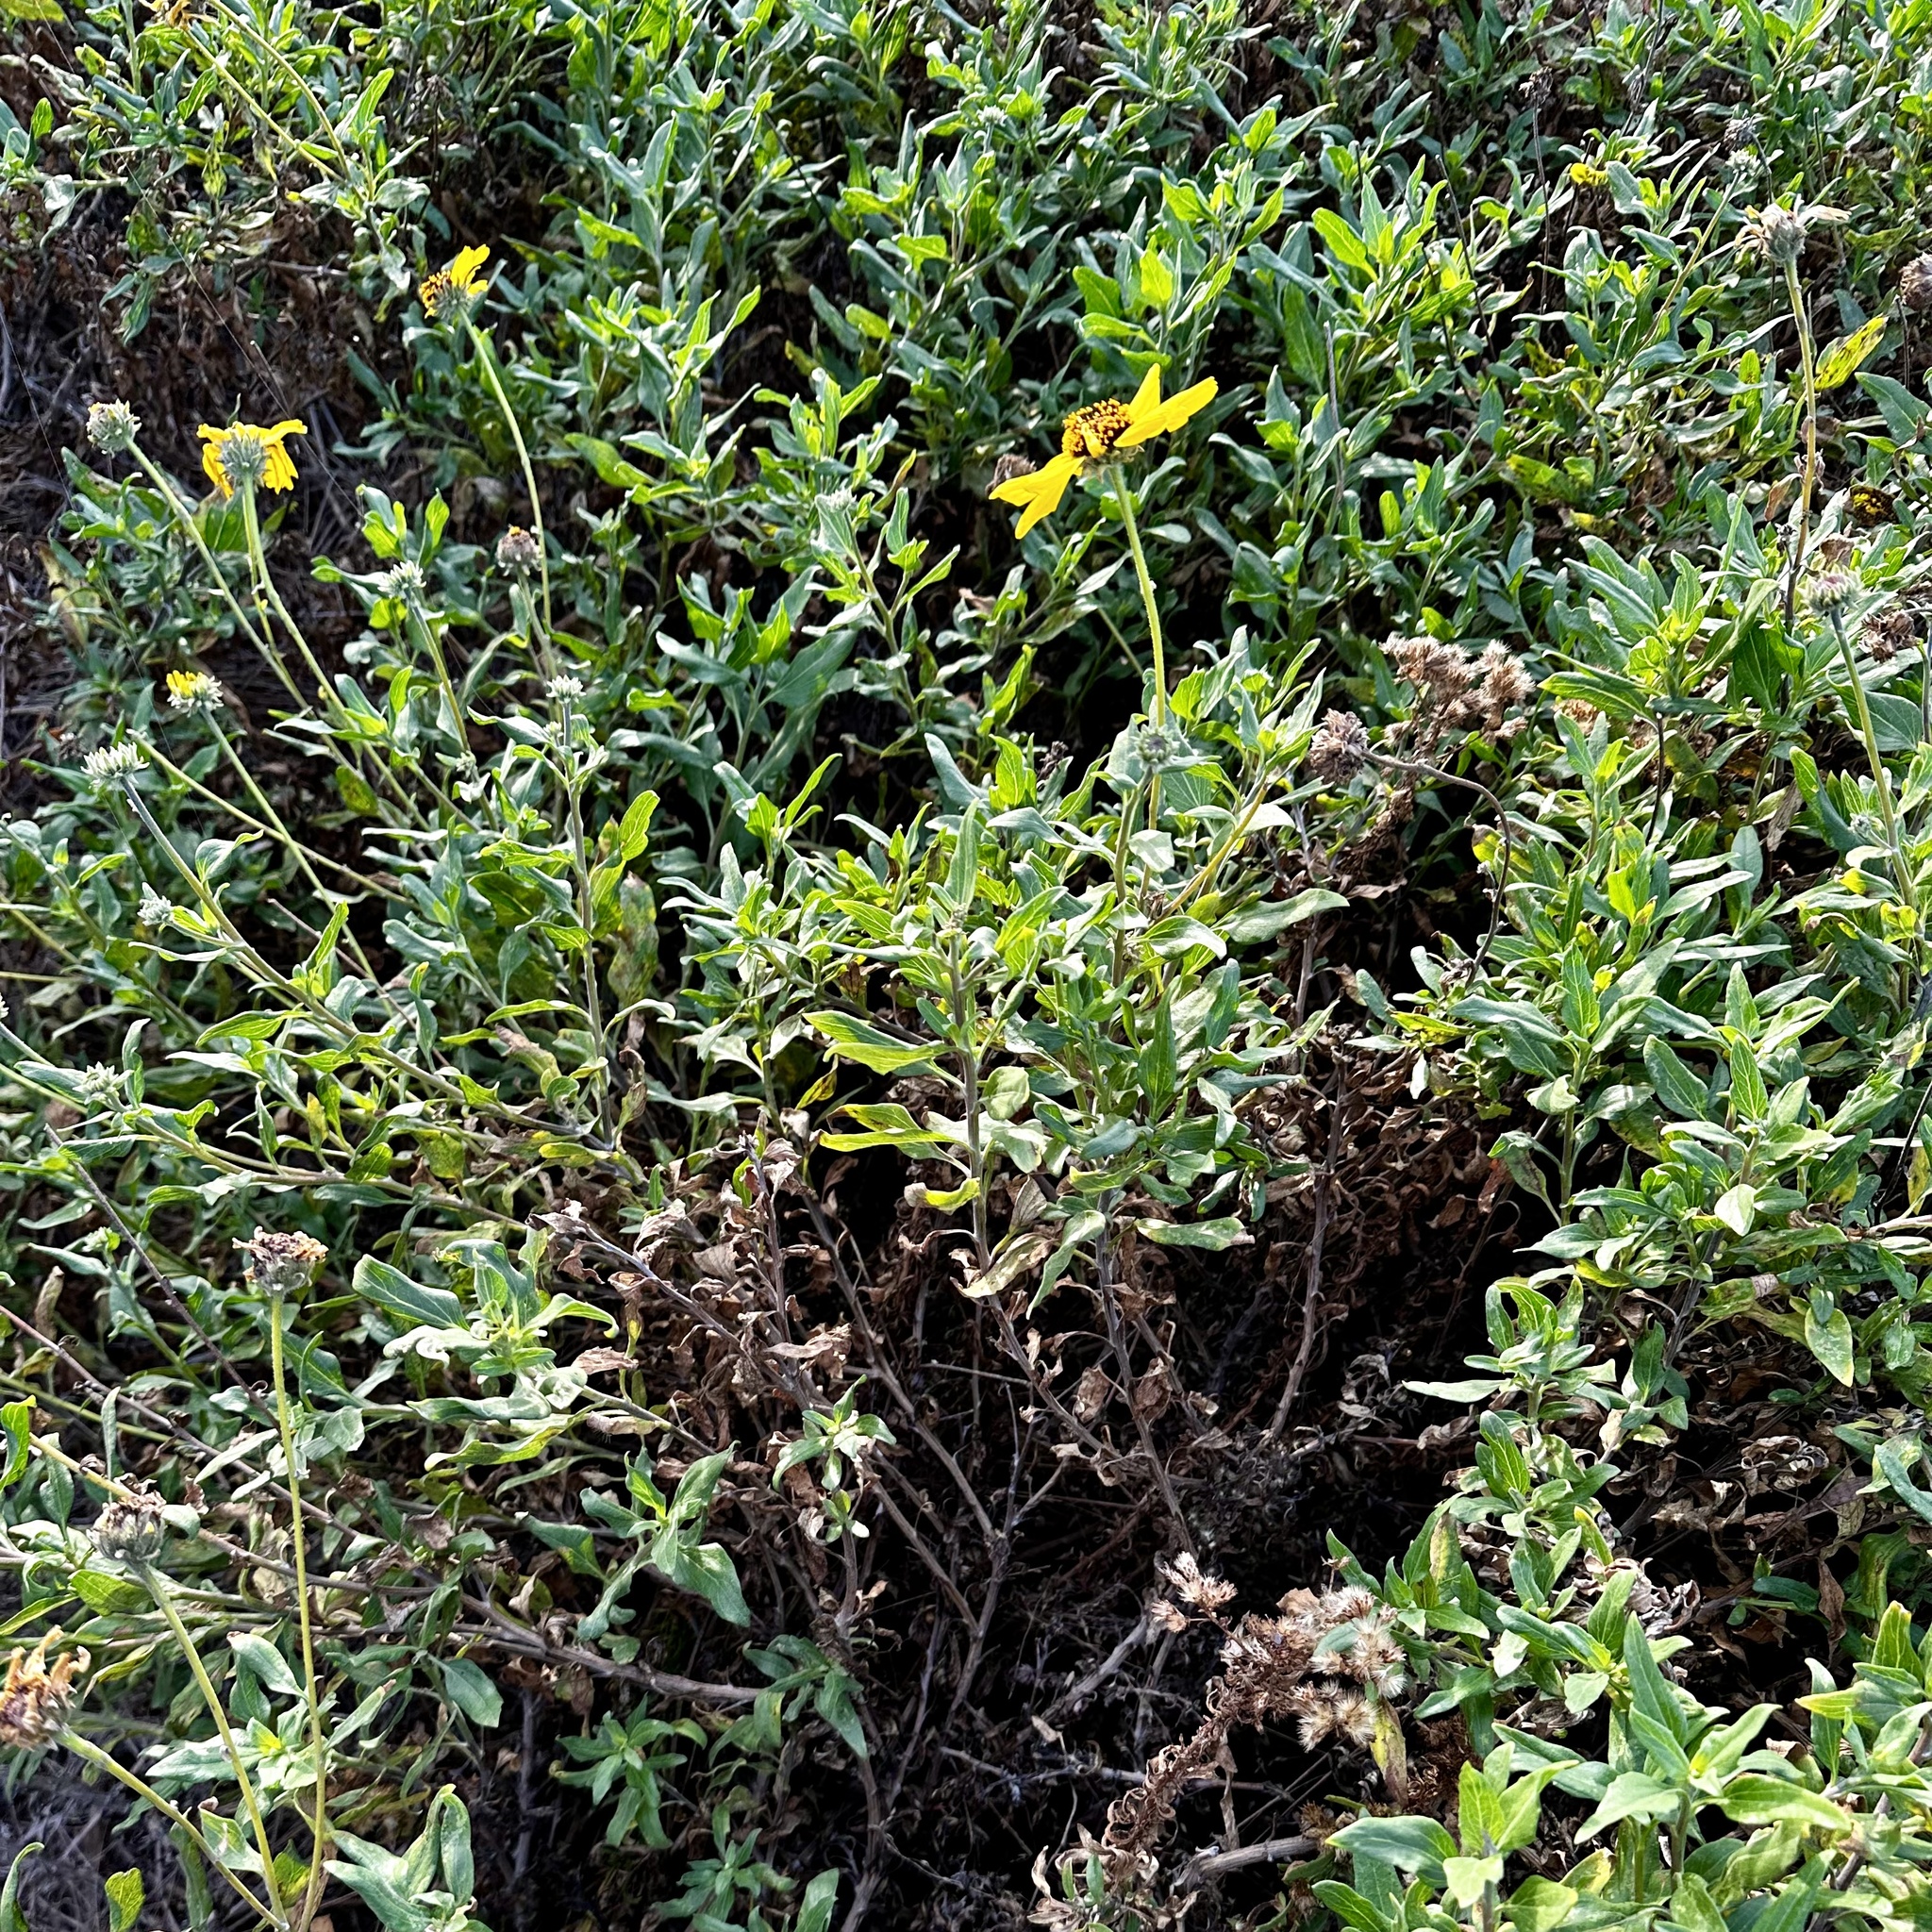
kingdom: Plantae
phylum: Tracheophyta
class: Magnoliopsida
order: Asterales
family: Asteraceae
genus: Encelia
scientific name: Encelia californica
